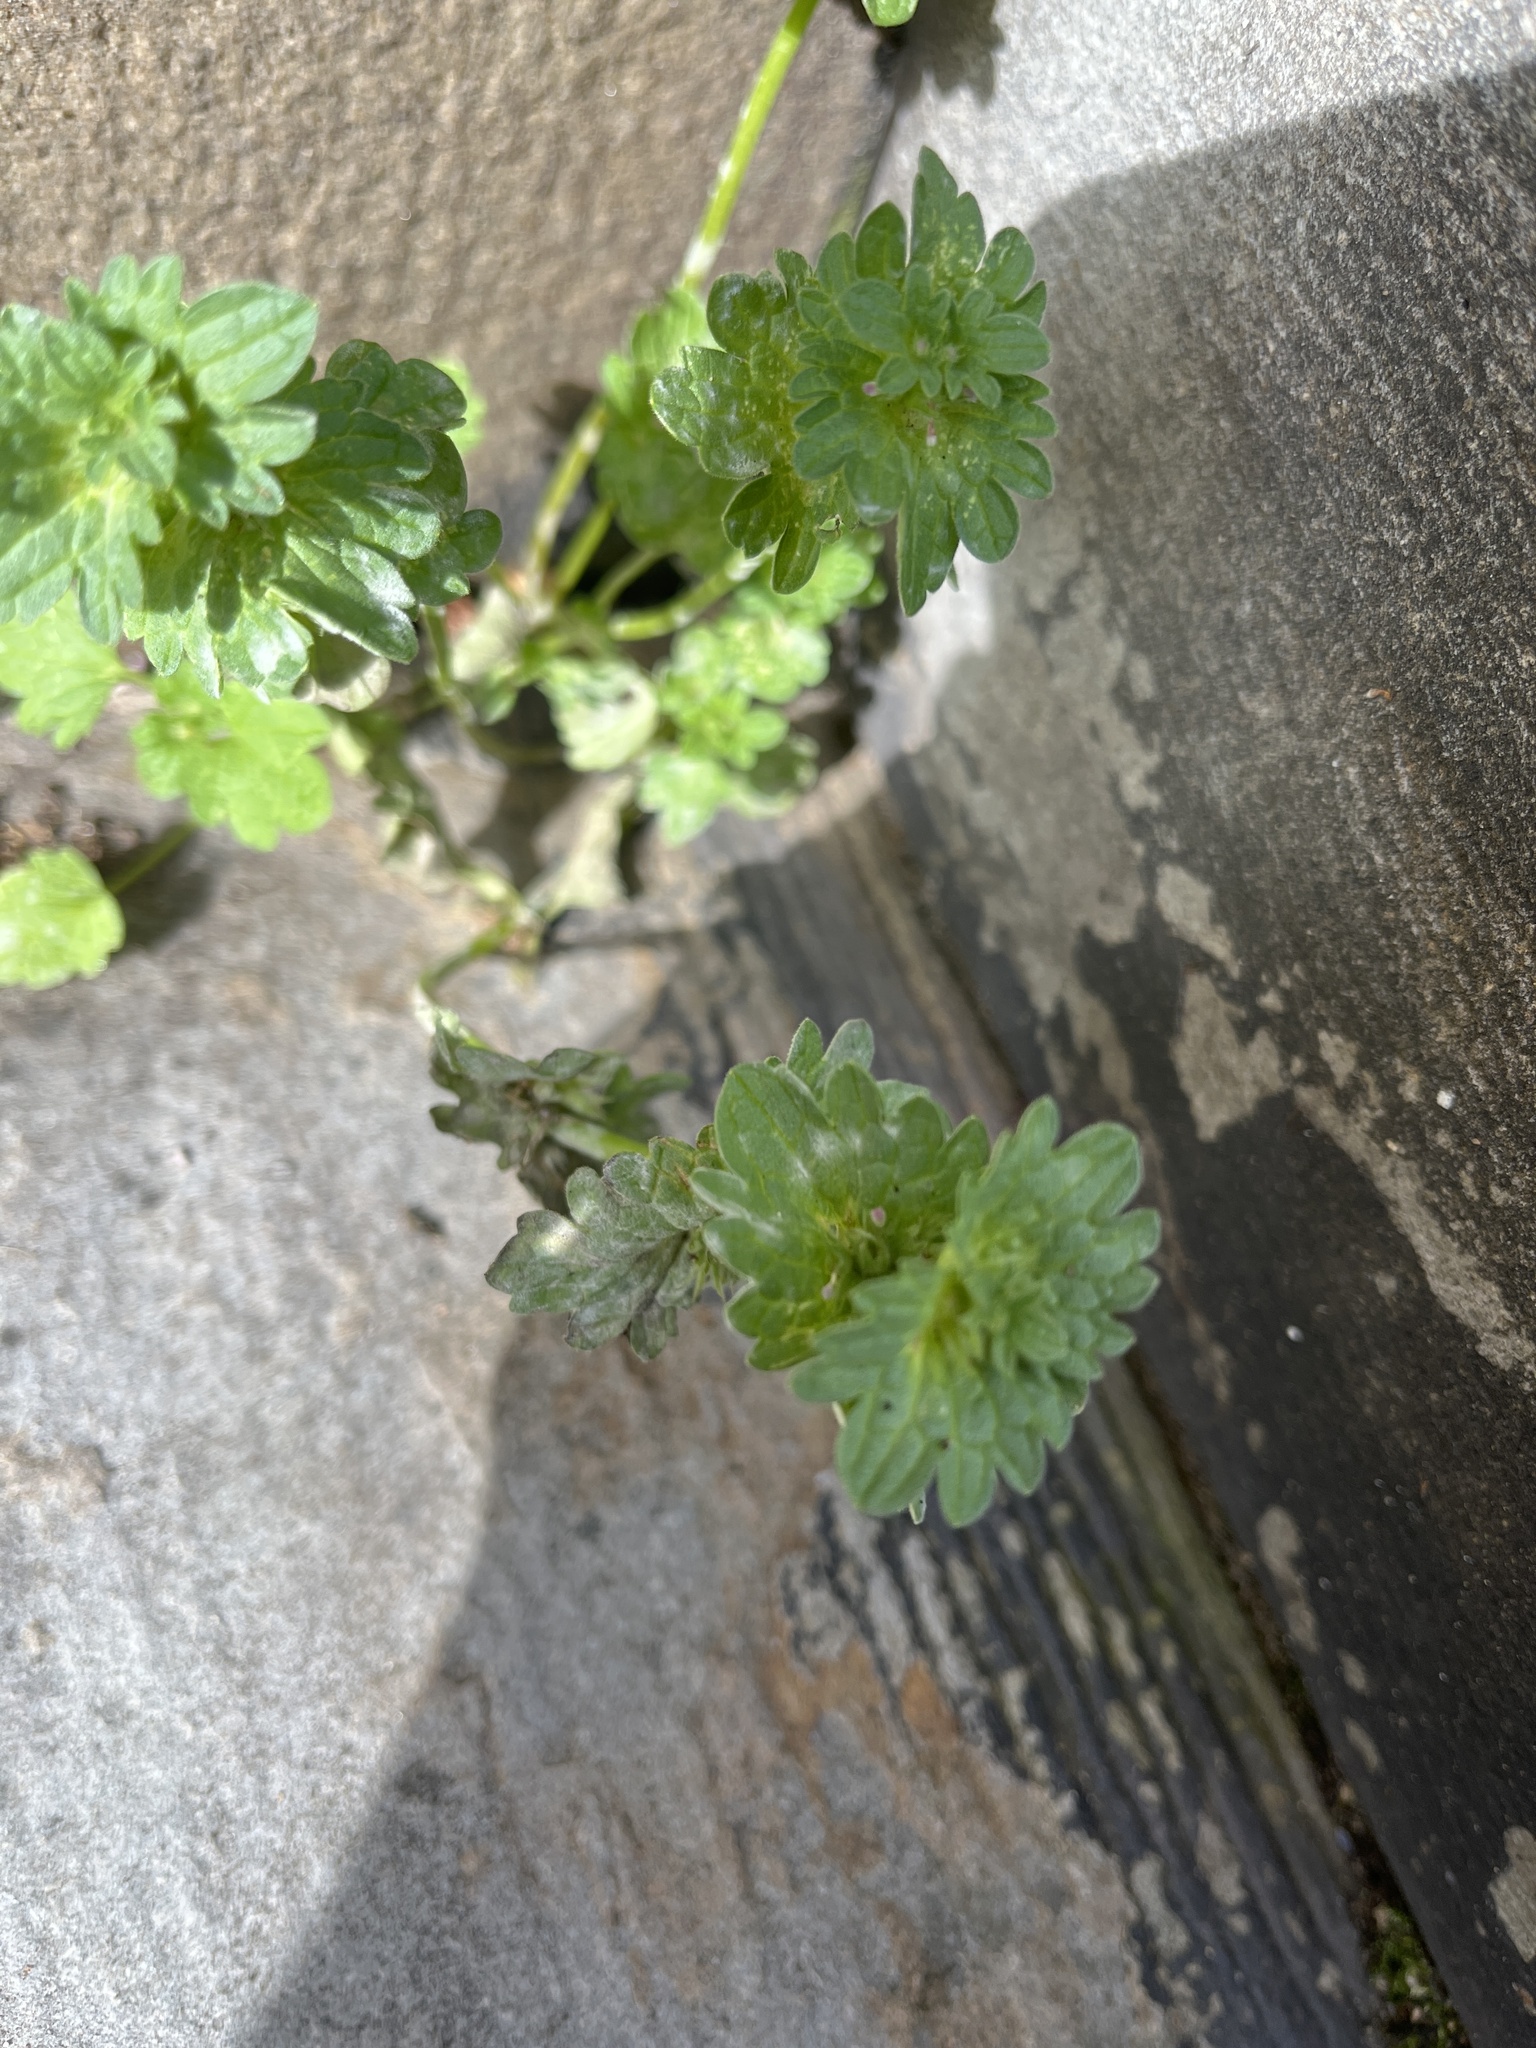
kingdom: Fungi
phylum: Ascomycota
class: Leotiomycetes
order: Helotiales
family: Erysiphaceae
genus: Neoerysiphe
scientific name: Neoerysiphe galeopsidis
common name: Mint mildew
